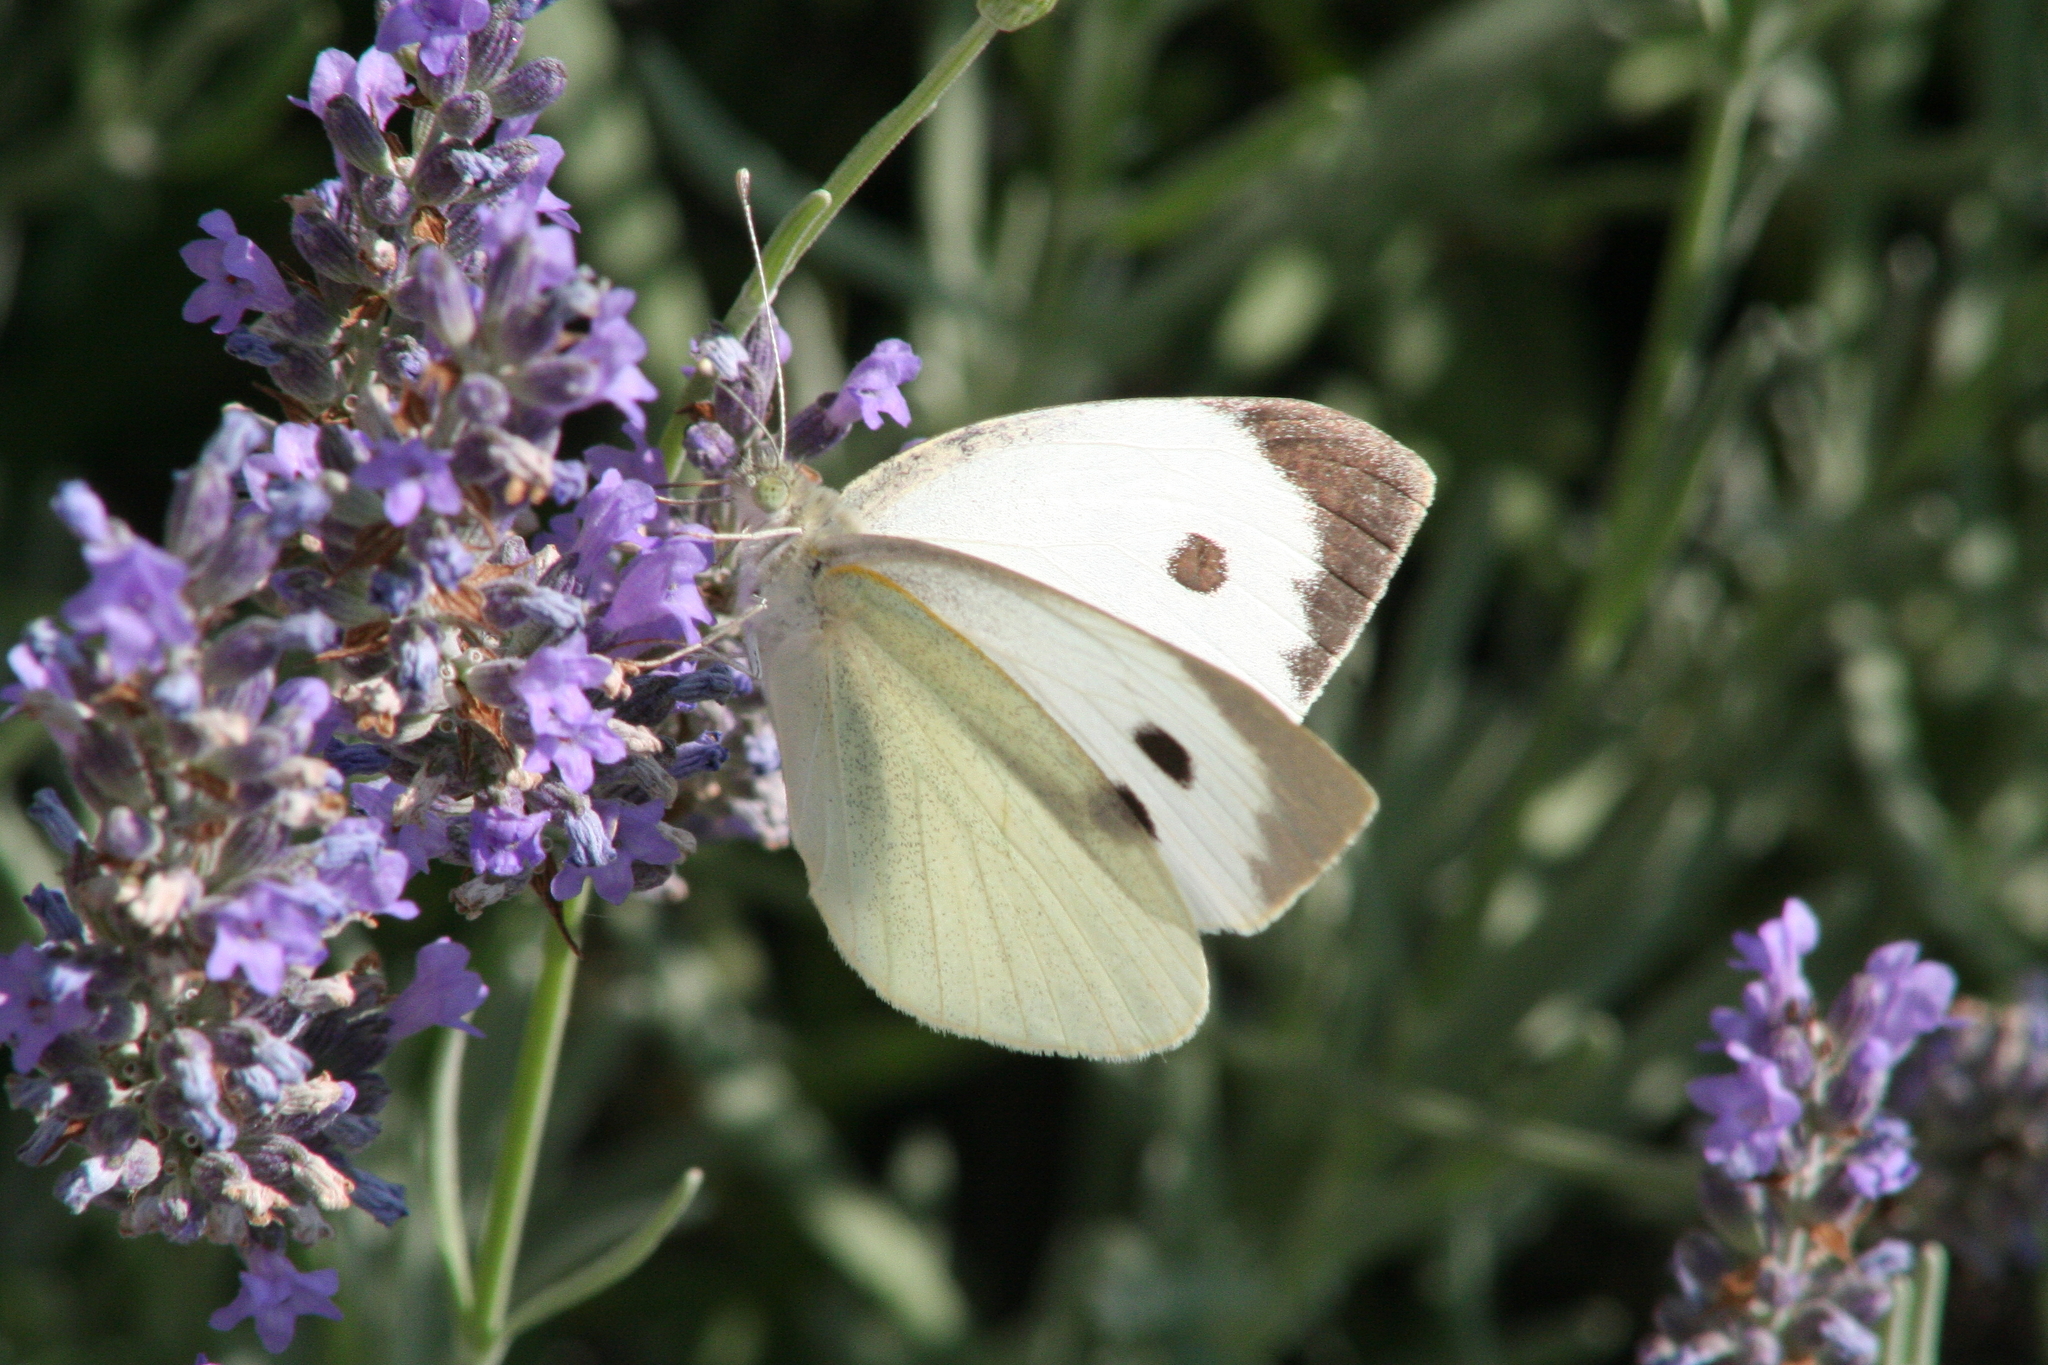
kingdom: Animalia
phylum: Arthropoda
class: Insecta
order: Lepidoptera
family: Pieridae
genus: Pieris
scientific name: Pieris brassicae
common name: Large white
